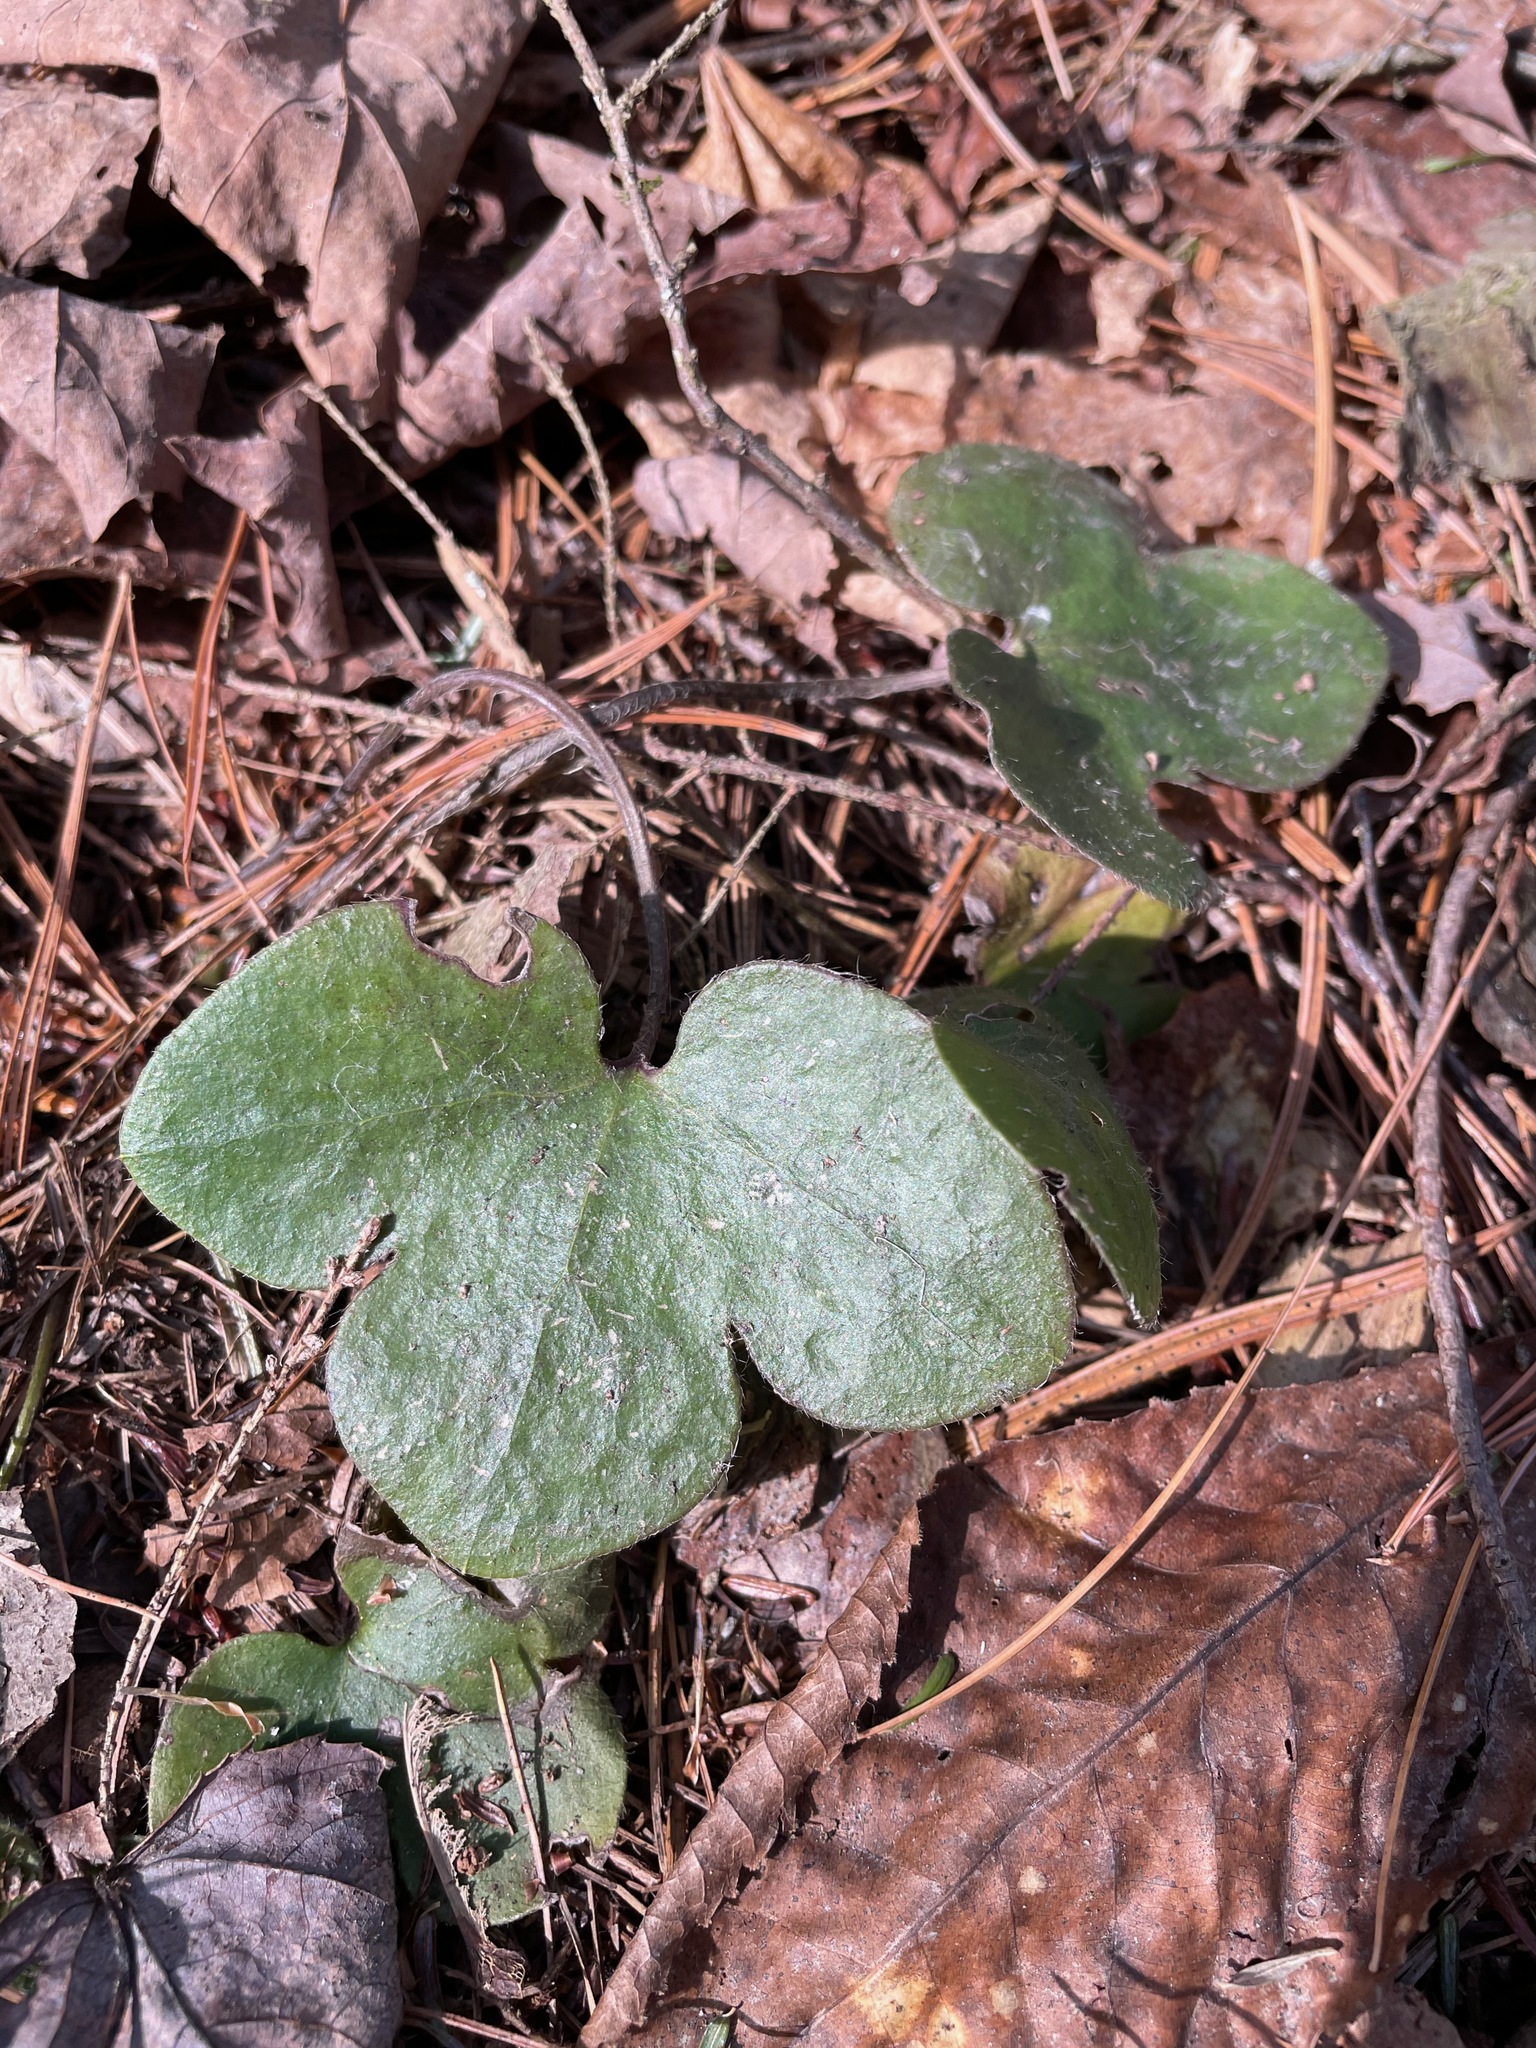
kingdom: Plantae
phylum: Tracheophyta
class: Magnoliopsida
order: Ranunculales
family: Ranunculaceae
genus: Hepatica
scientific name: Hepatica americana
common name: American hepatica
